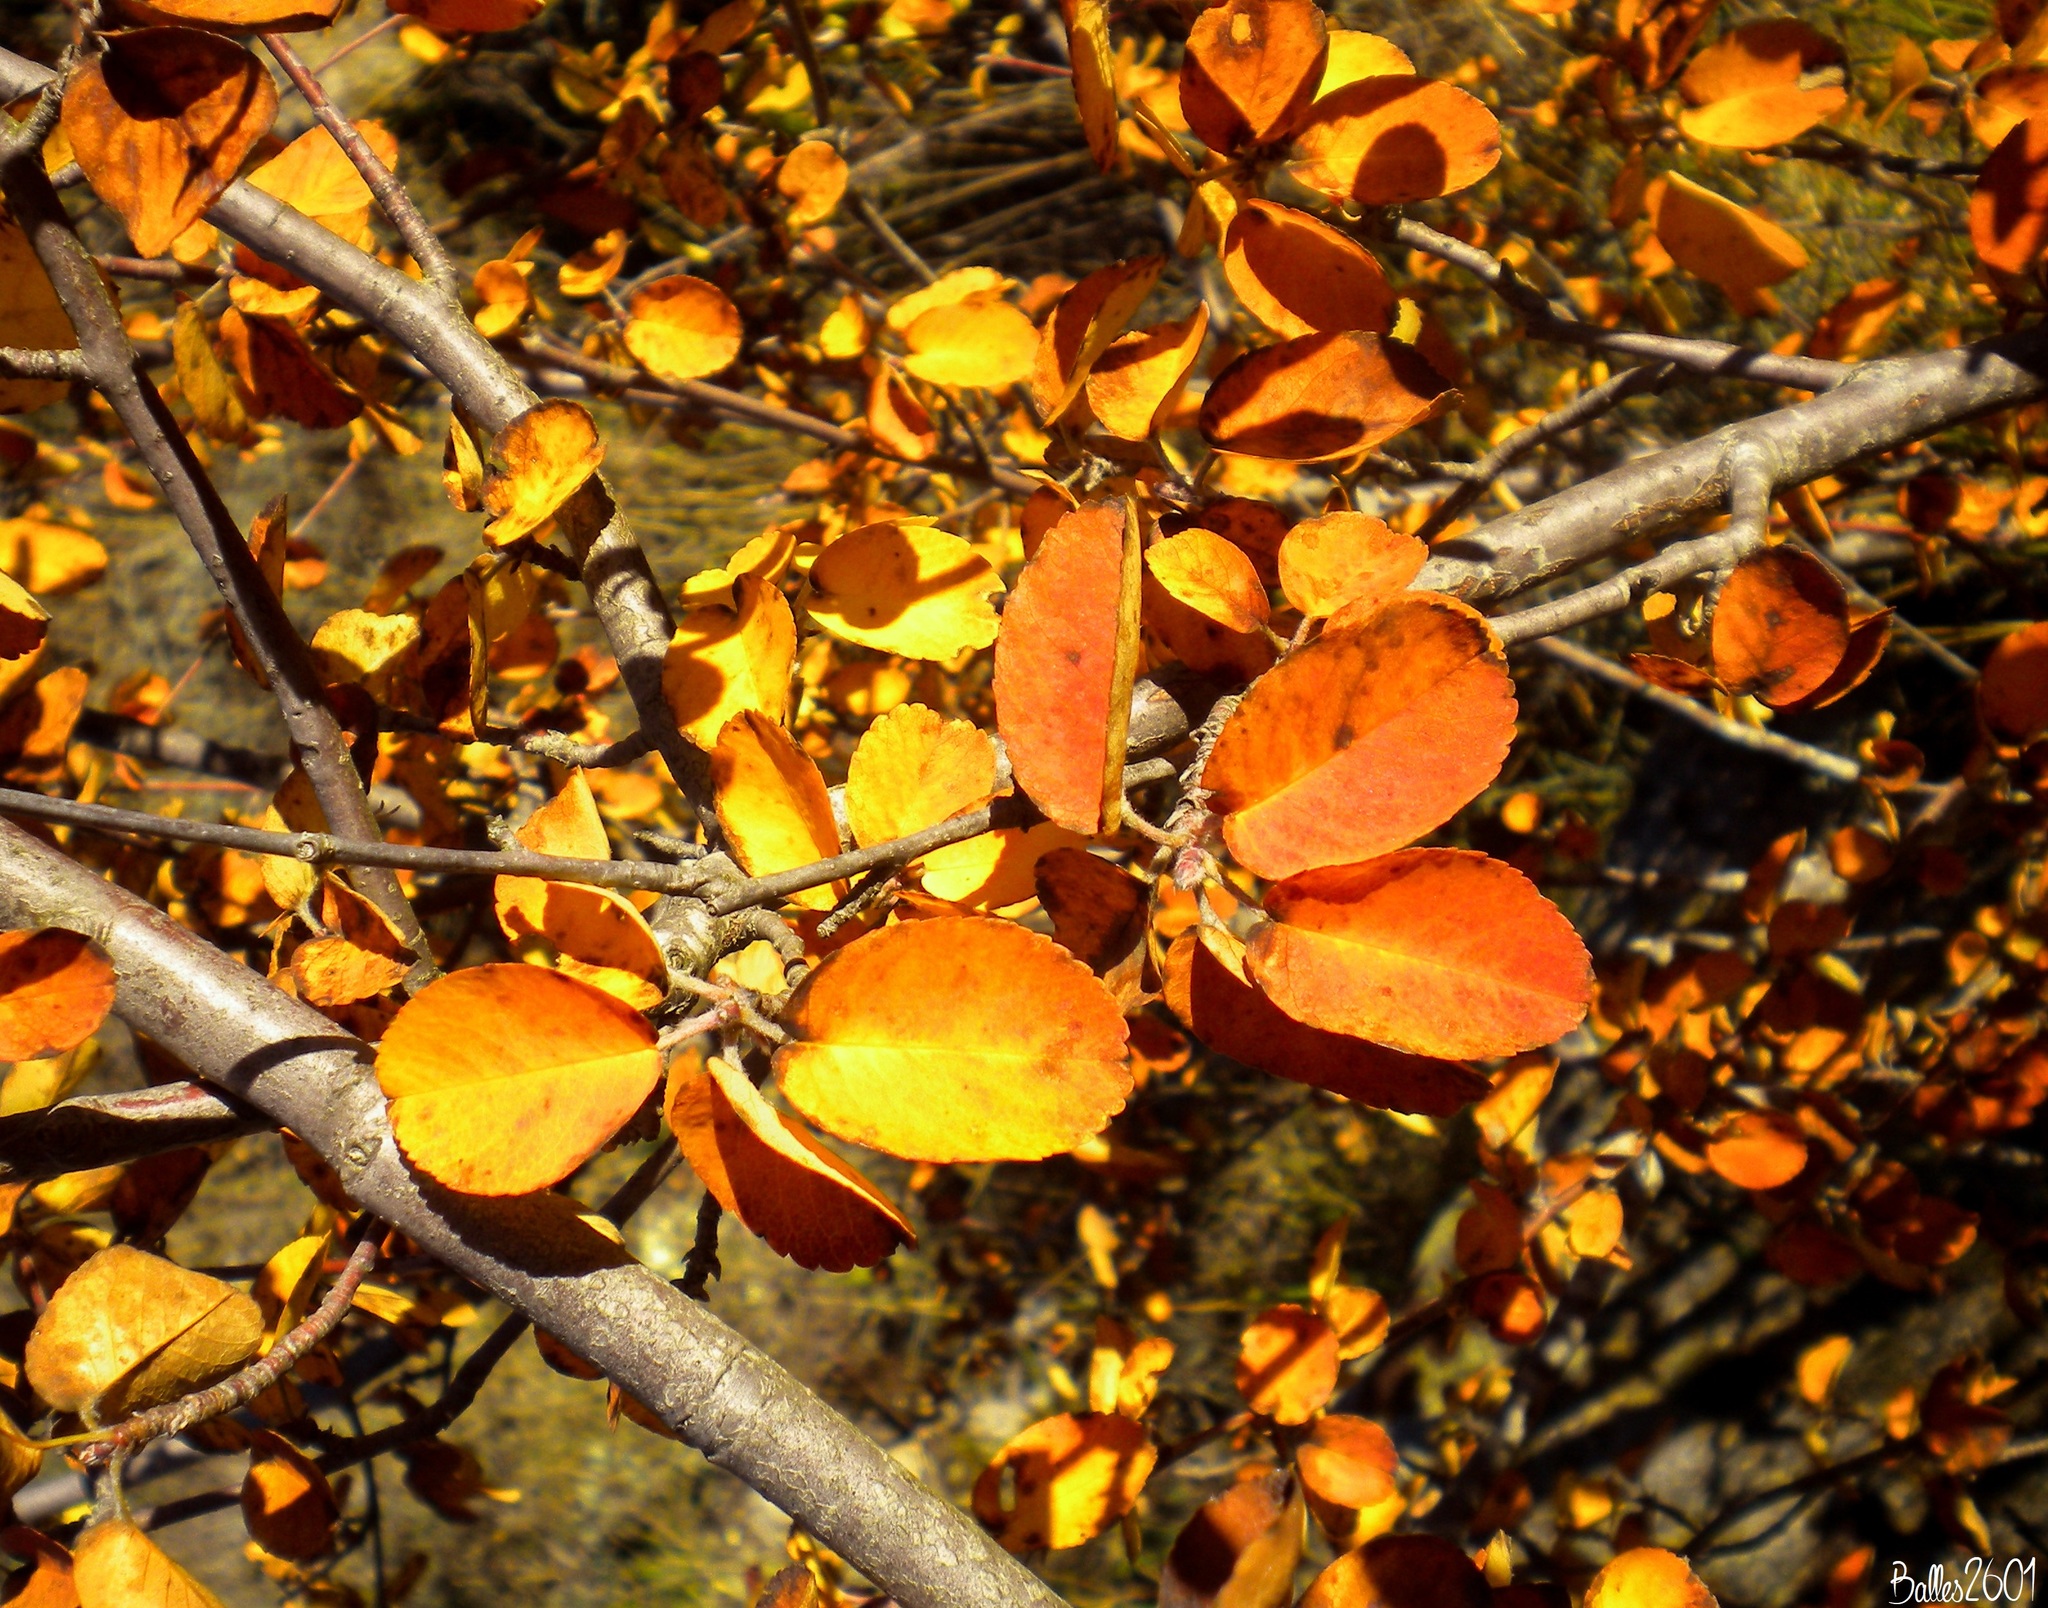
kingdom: Plantae
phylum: Tracheophyta
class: Magnoliopsida
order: Rosales
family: Rosaceae
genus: Amelanchier
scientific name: Amelanchier ovalis
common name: Serviceberry
